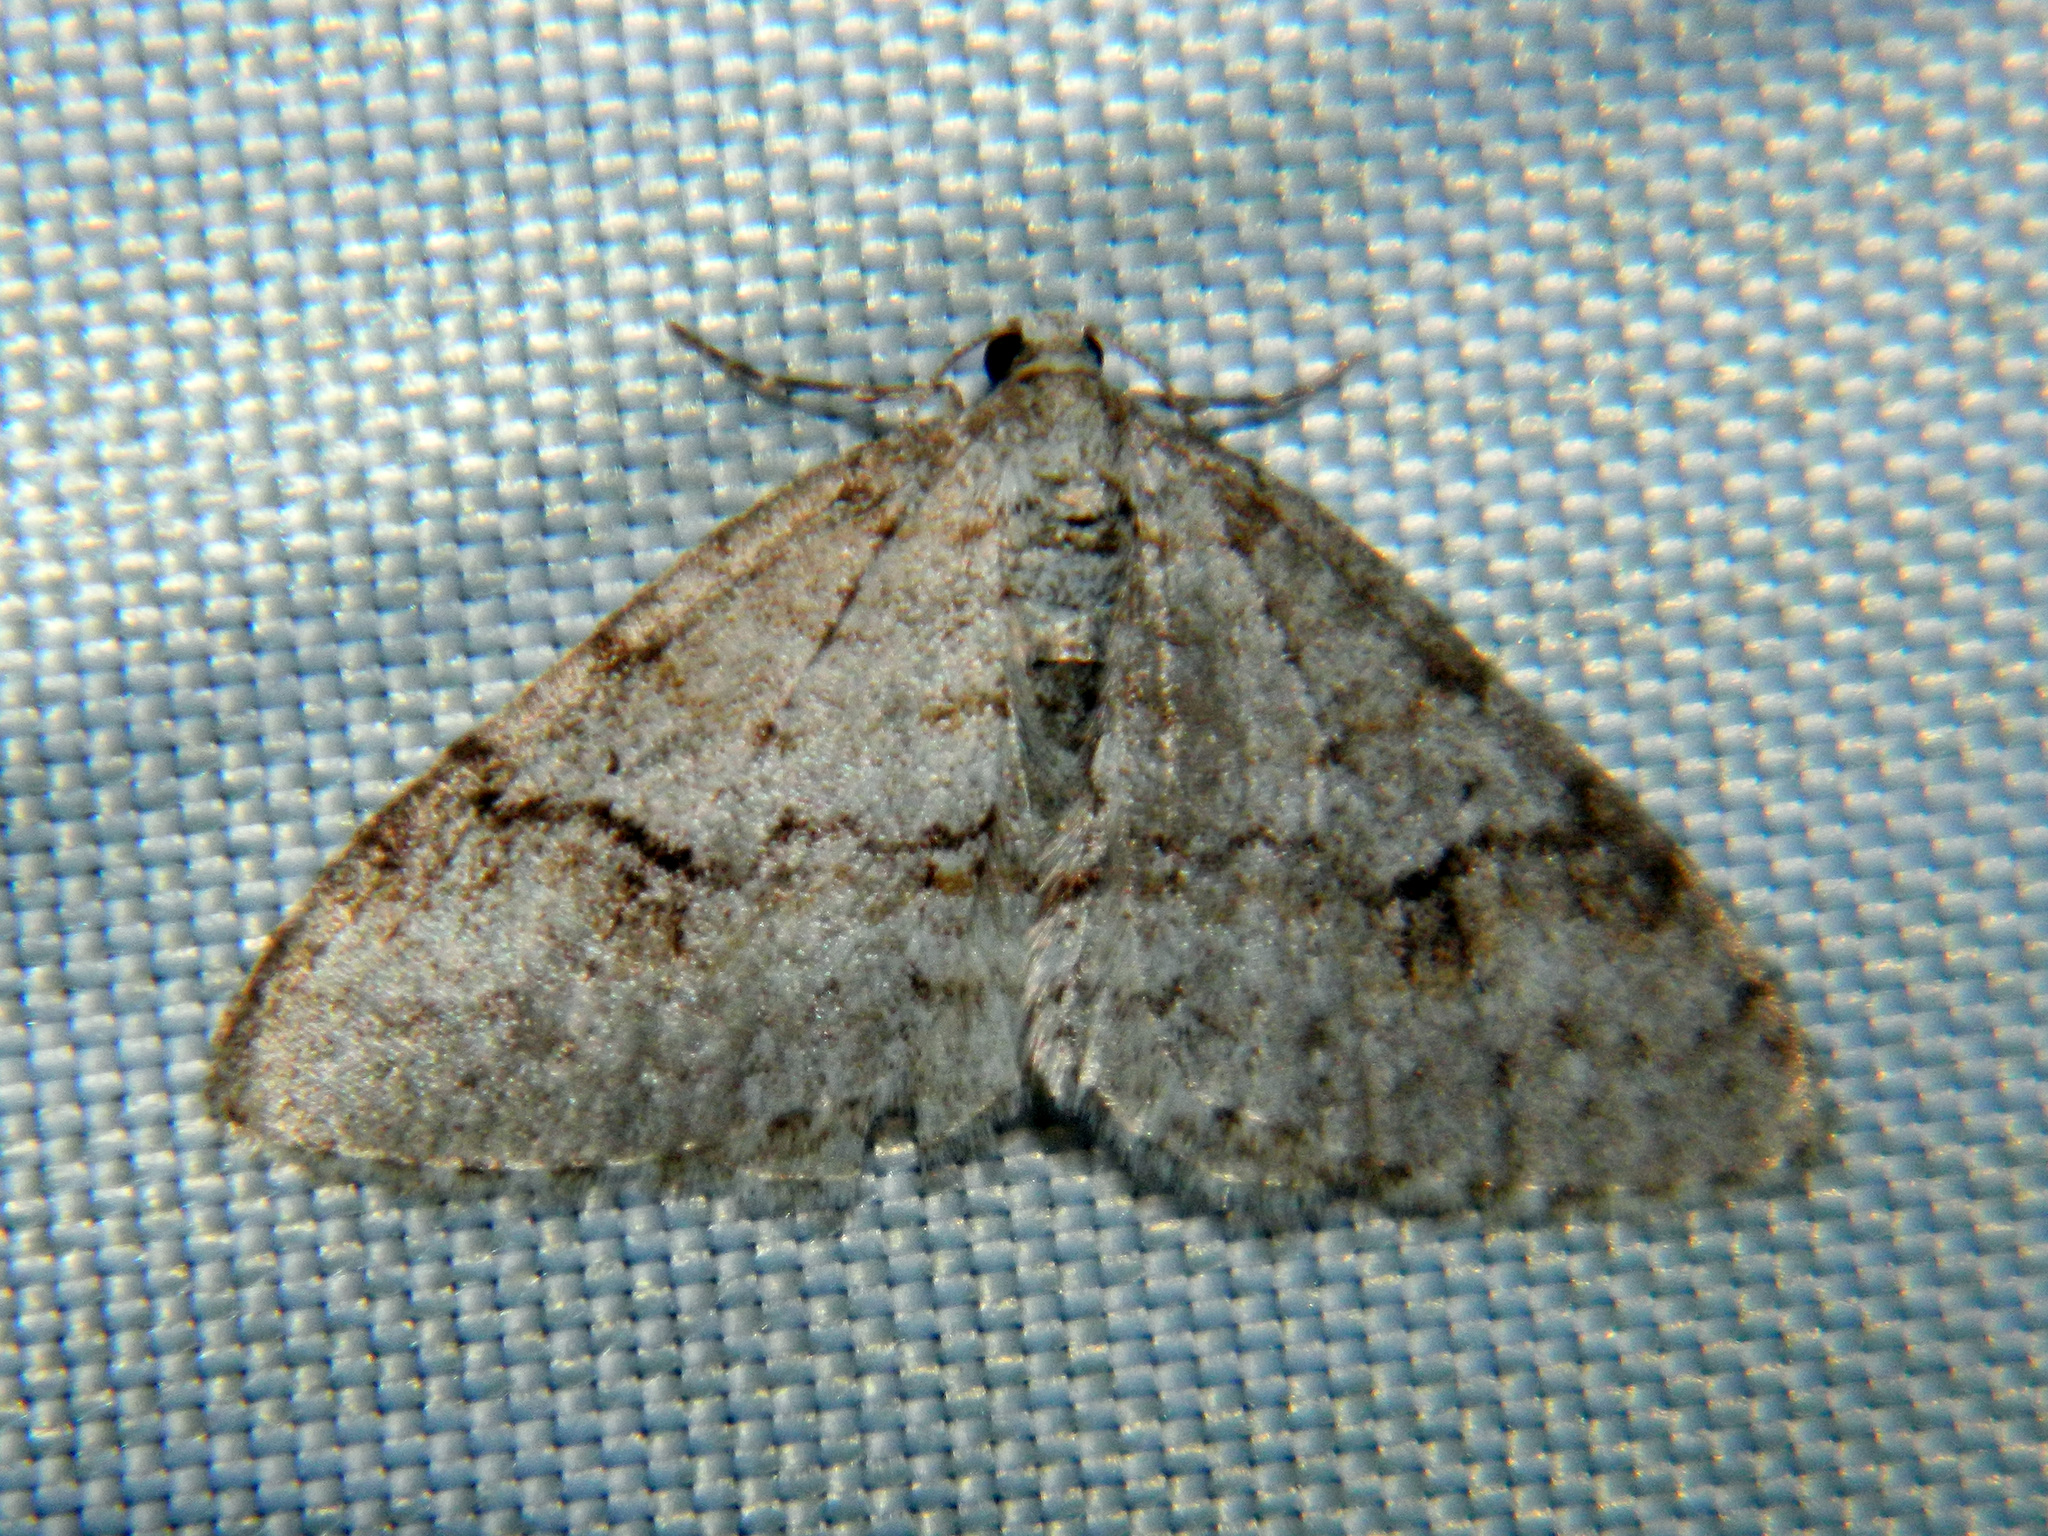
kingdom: Animalia
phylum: Arthropoda
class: Insecta
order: Lepidoptera
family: Geometridae
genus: Venusia
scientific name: Venusia comptaria
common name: Brown-shaded carpet
